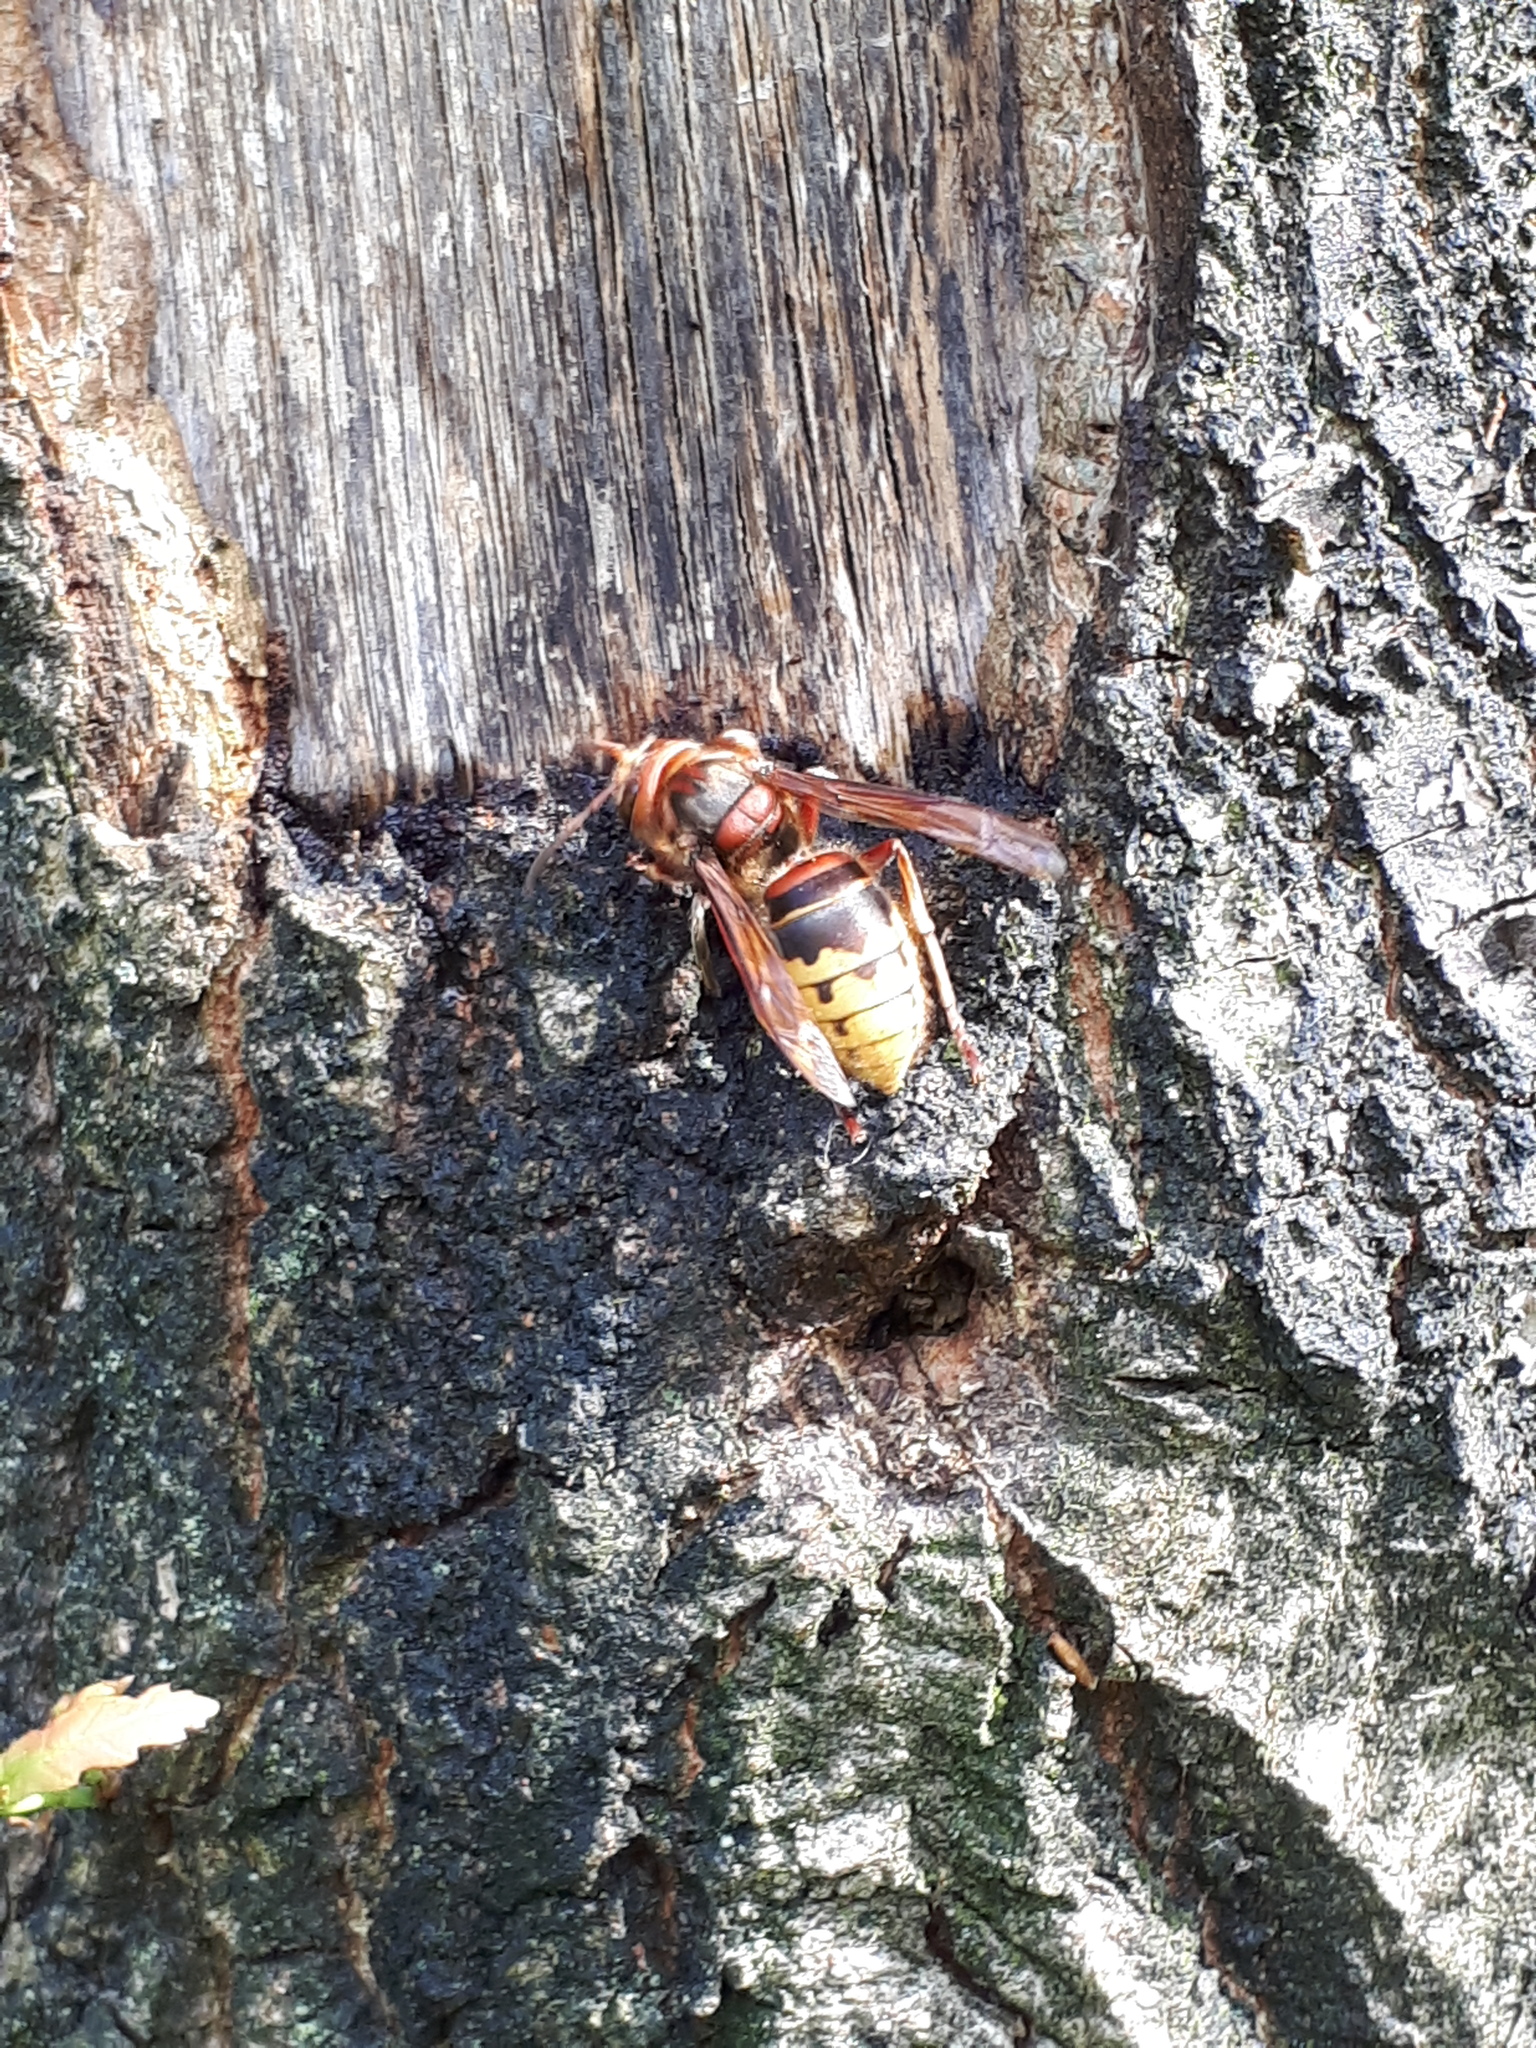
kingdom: Animalia
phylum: Arthropoda
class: Insecta
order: Hymenoptera
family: Vespidae
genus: Vespa
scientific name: Vespa crabro
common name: Hornet
